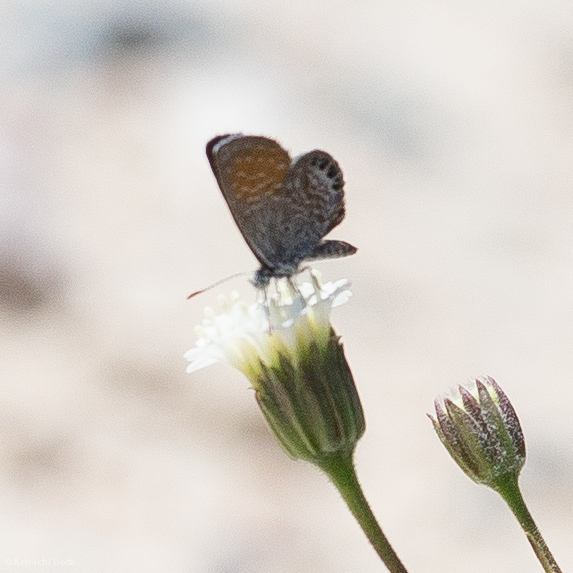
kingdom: Animalia
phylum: Arthropoda
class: Insecta
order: Lepidoptera
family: Lycaenidae
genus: Brephidium
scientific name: Brephidium exilis
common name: Pygmy blue
